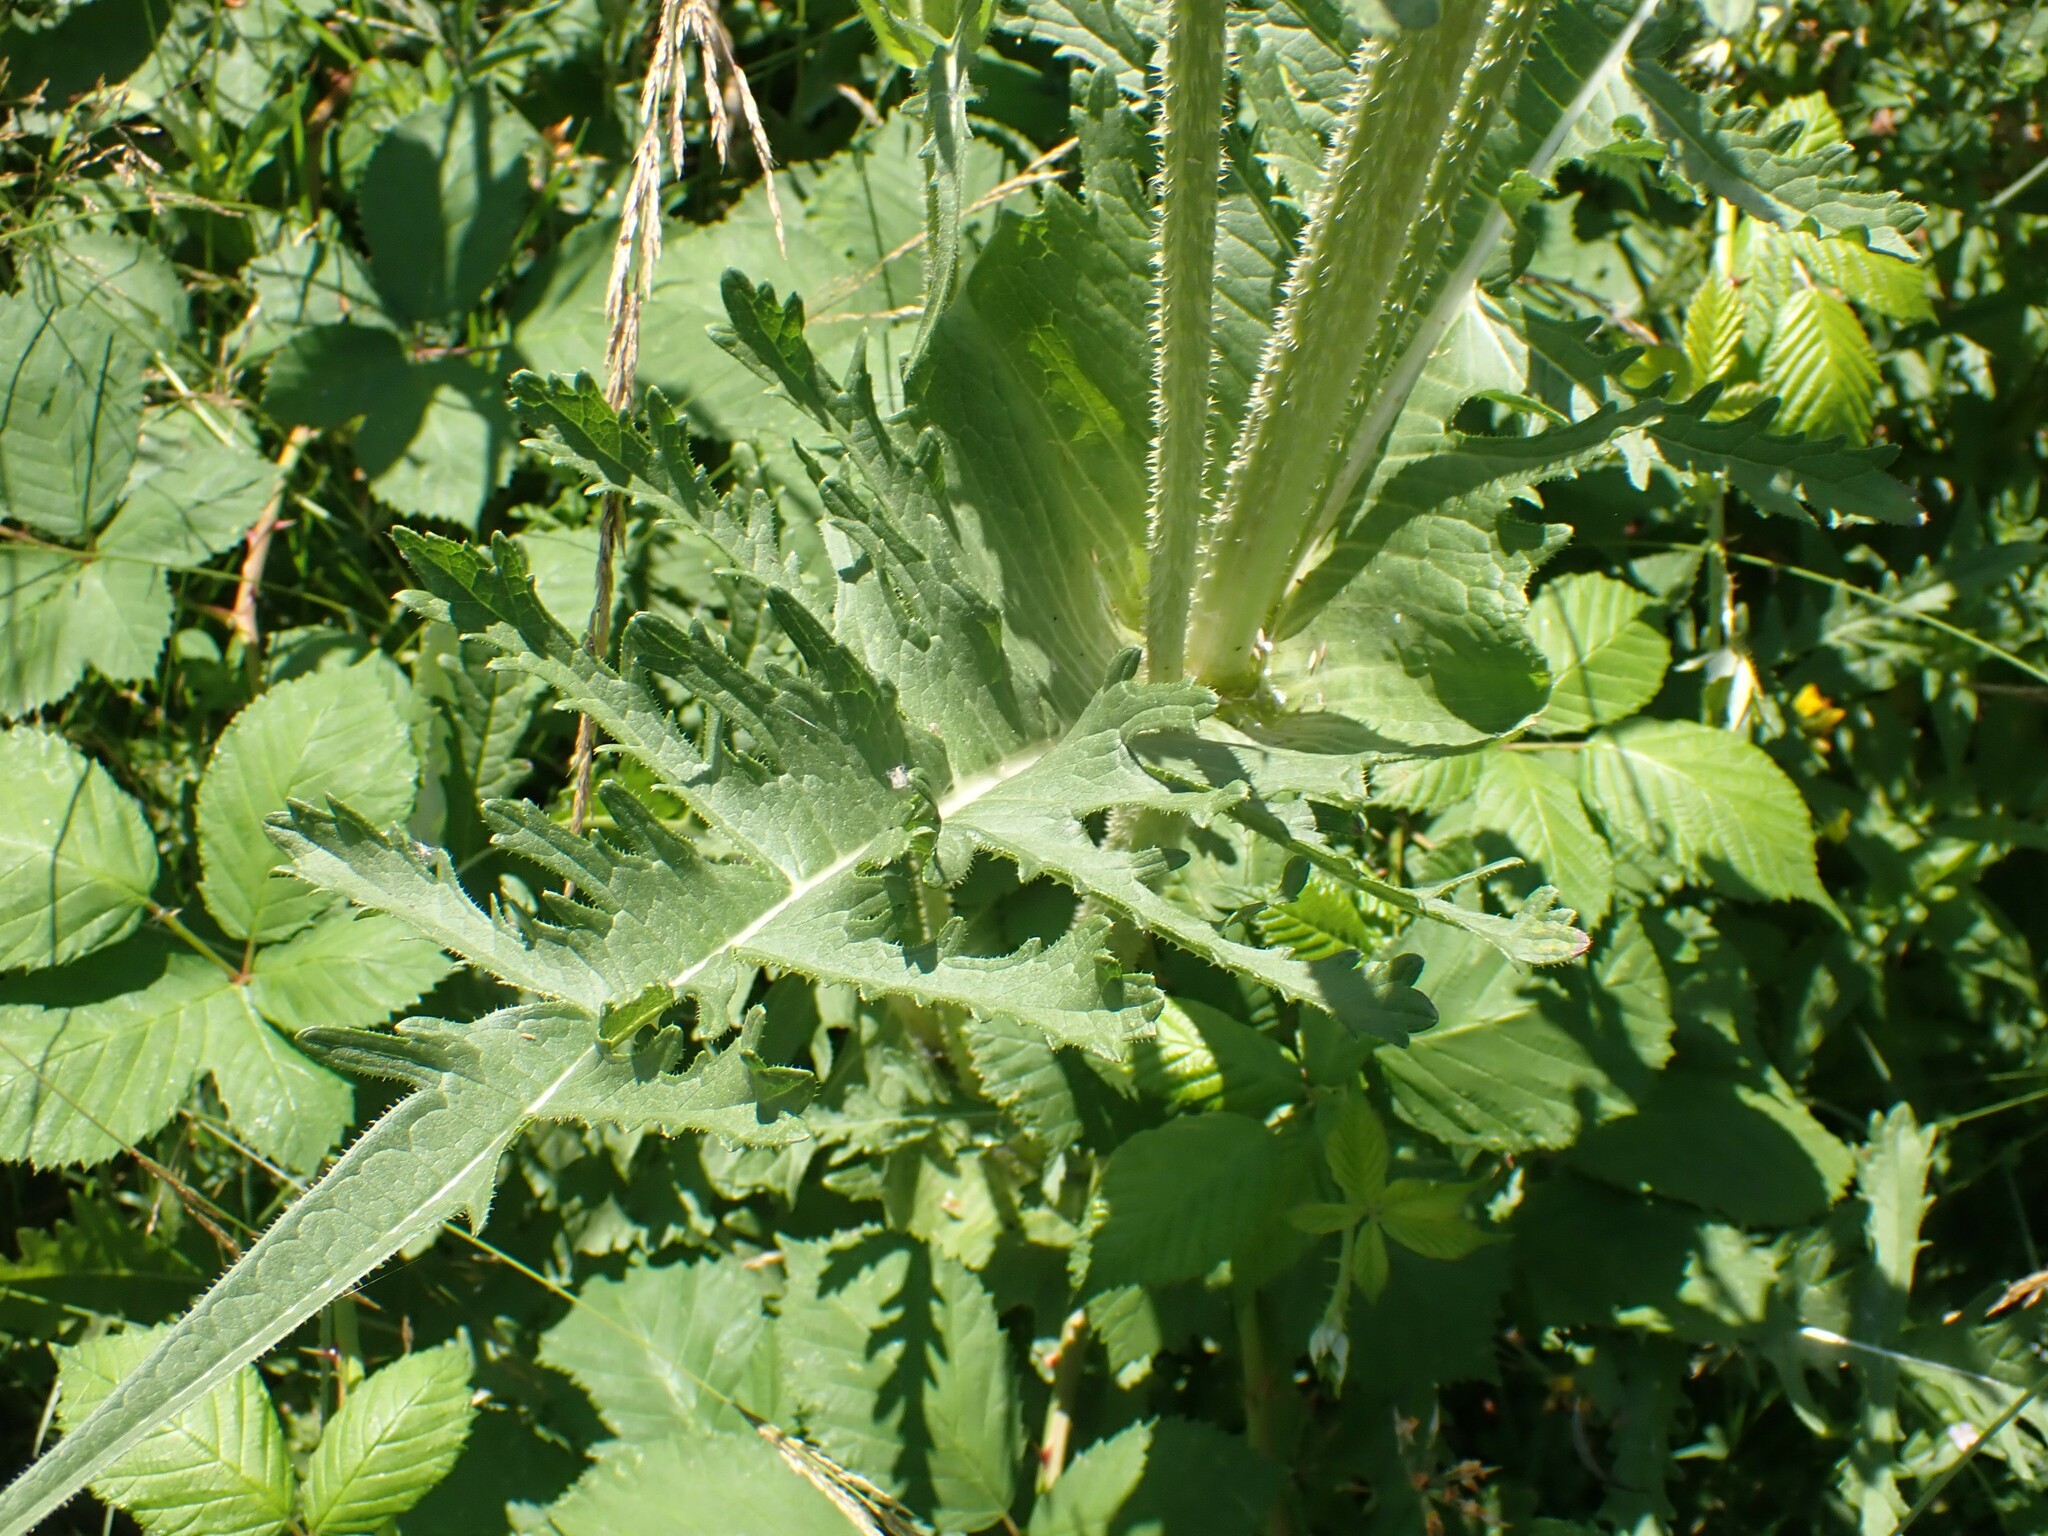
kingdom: Plantae
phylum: Tracheophyta
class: Magnoliopsida
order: Dipsacales
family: Caprifoliaceae
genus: Dipsacus
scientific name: Dipsacus laciniatus
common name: Cut-leaved teasel
